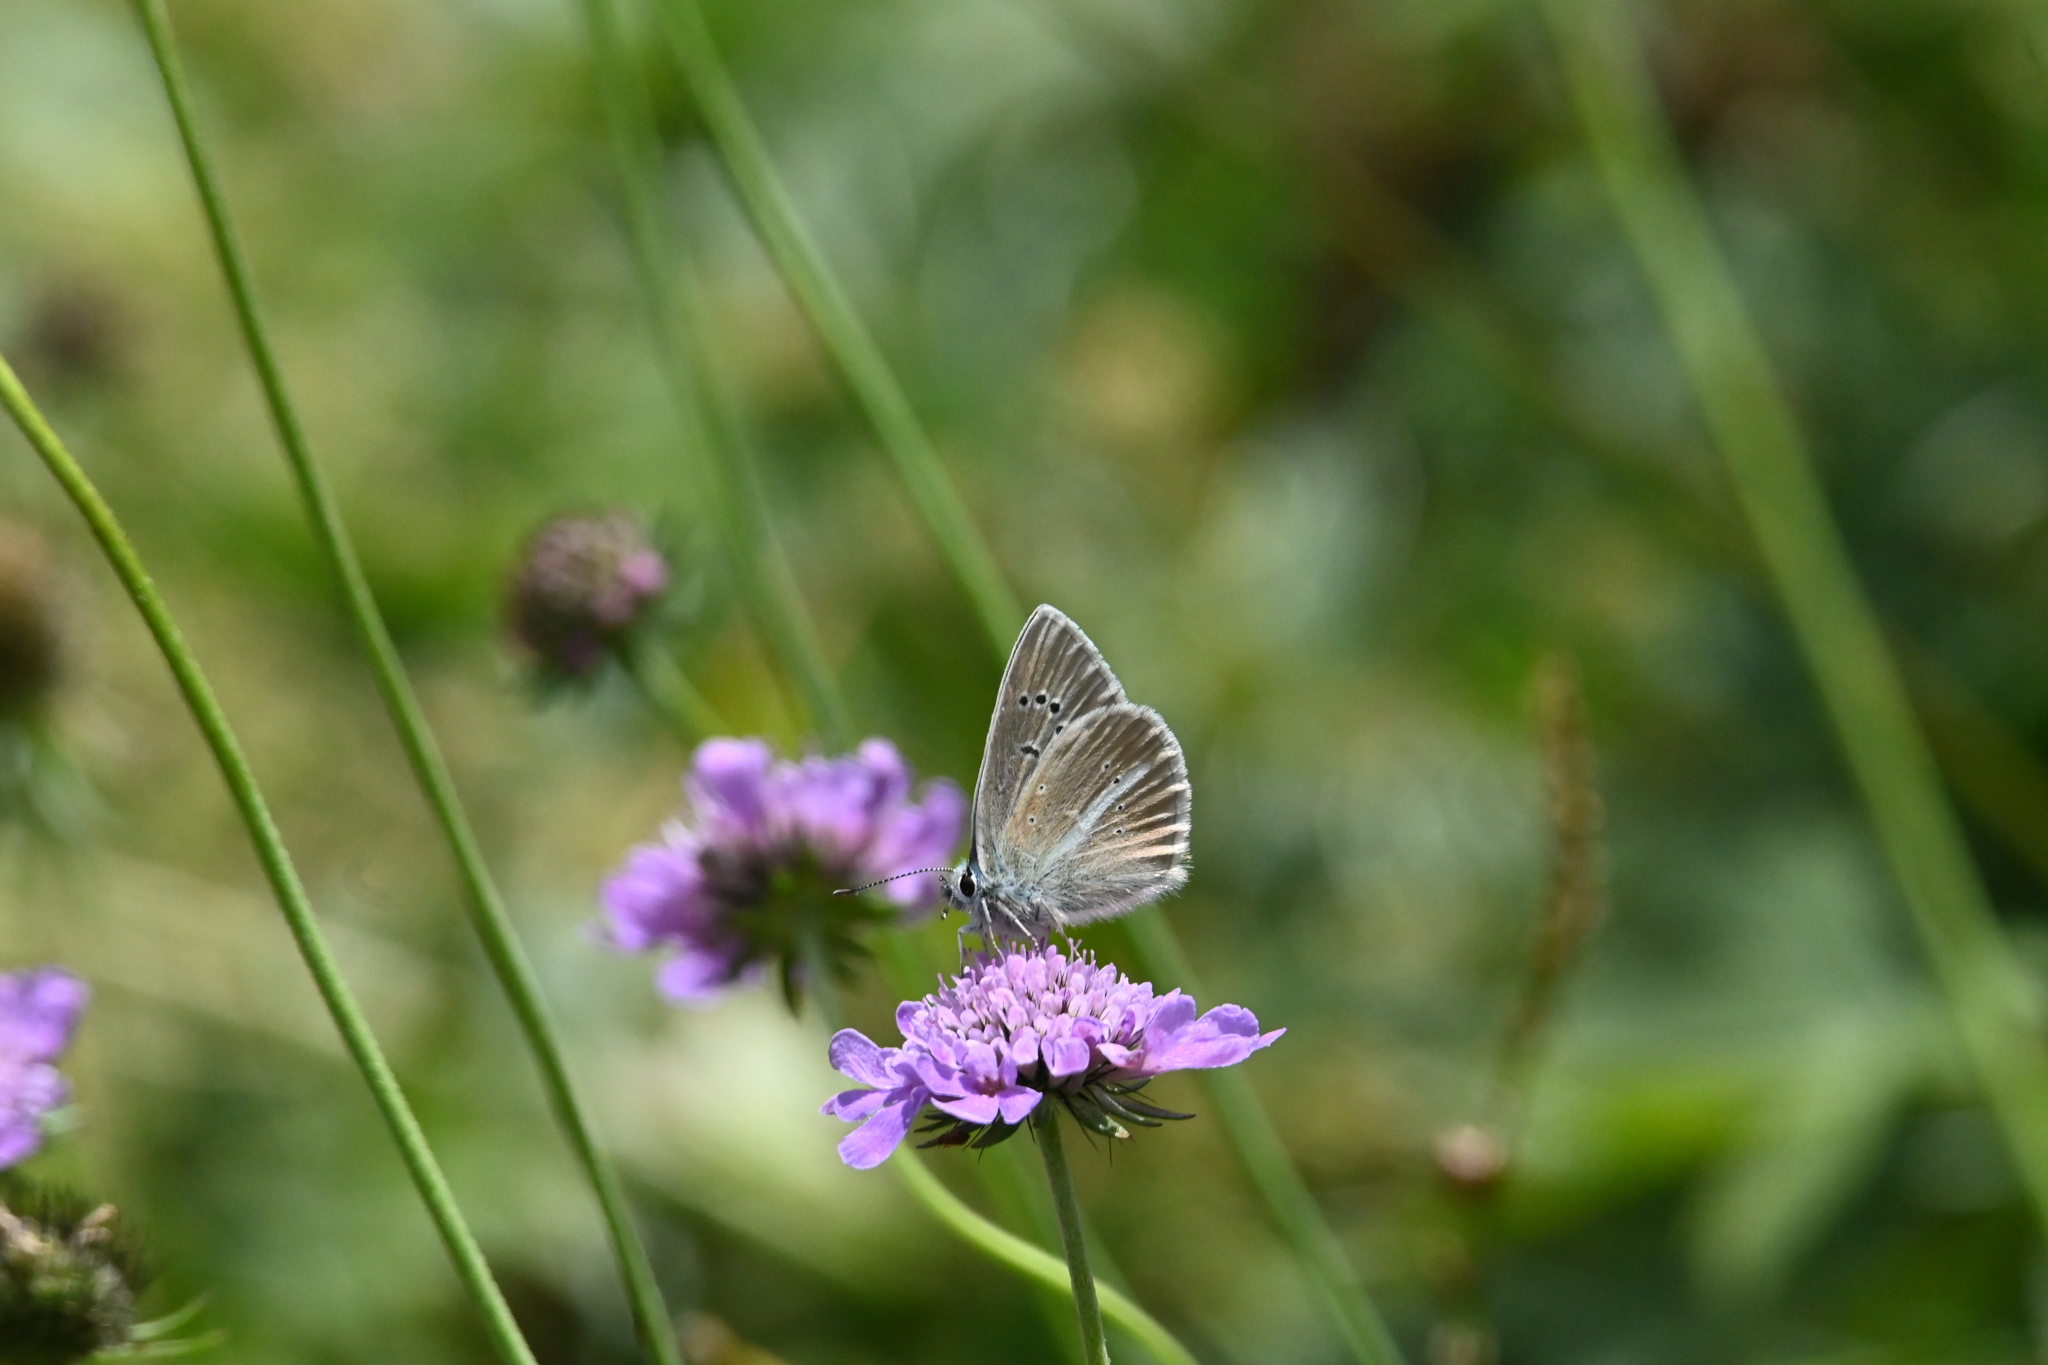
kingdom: Animalia
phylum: Arthropoda
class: Insecta
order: Lepidoptera
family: Lycaenidae
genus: Agrodiaetus
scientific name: Agrodiaetus damon
